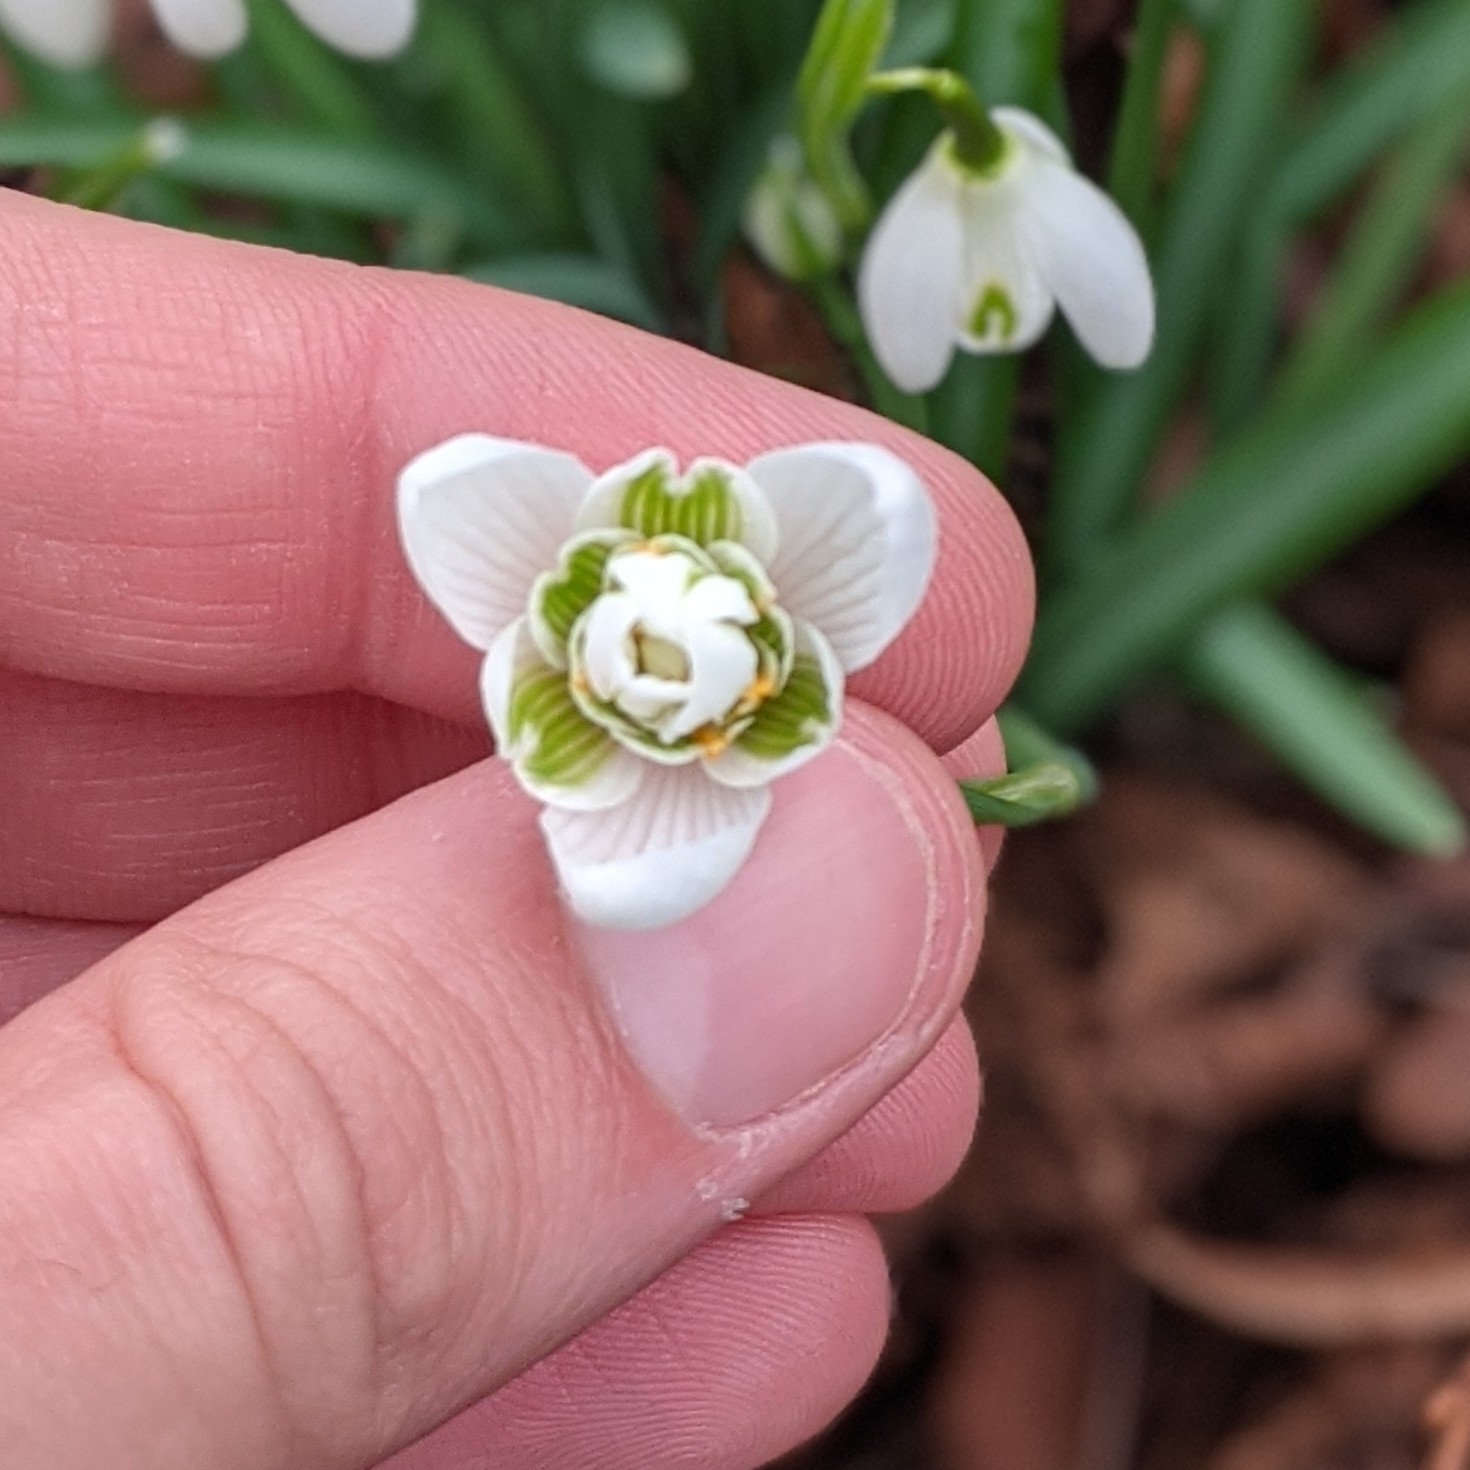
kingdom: Plantae
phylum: Tracheophyta
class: Liliopsida
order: Asparagales
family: Amaryllidaceae
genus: Galanthus
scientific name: Galanthus nivalis
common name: Snowdrop
